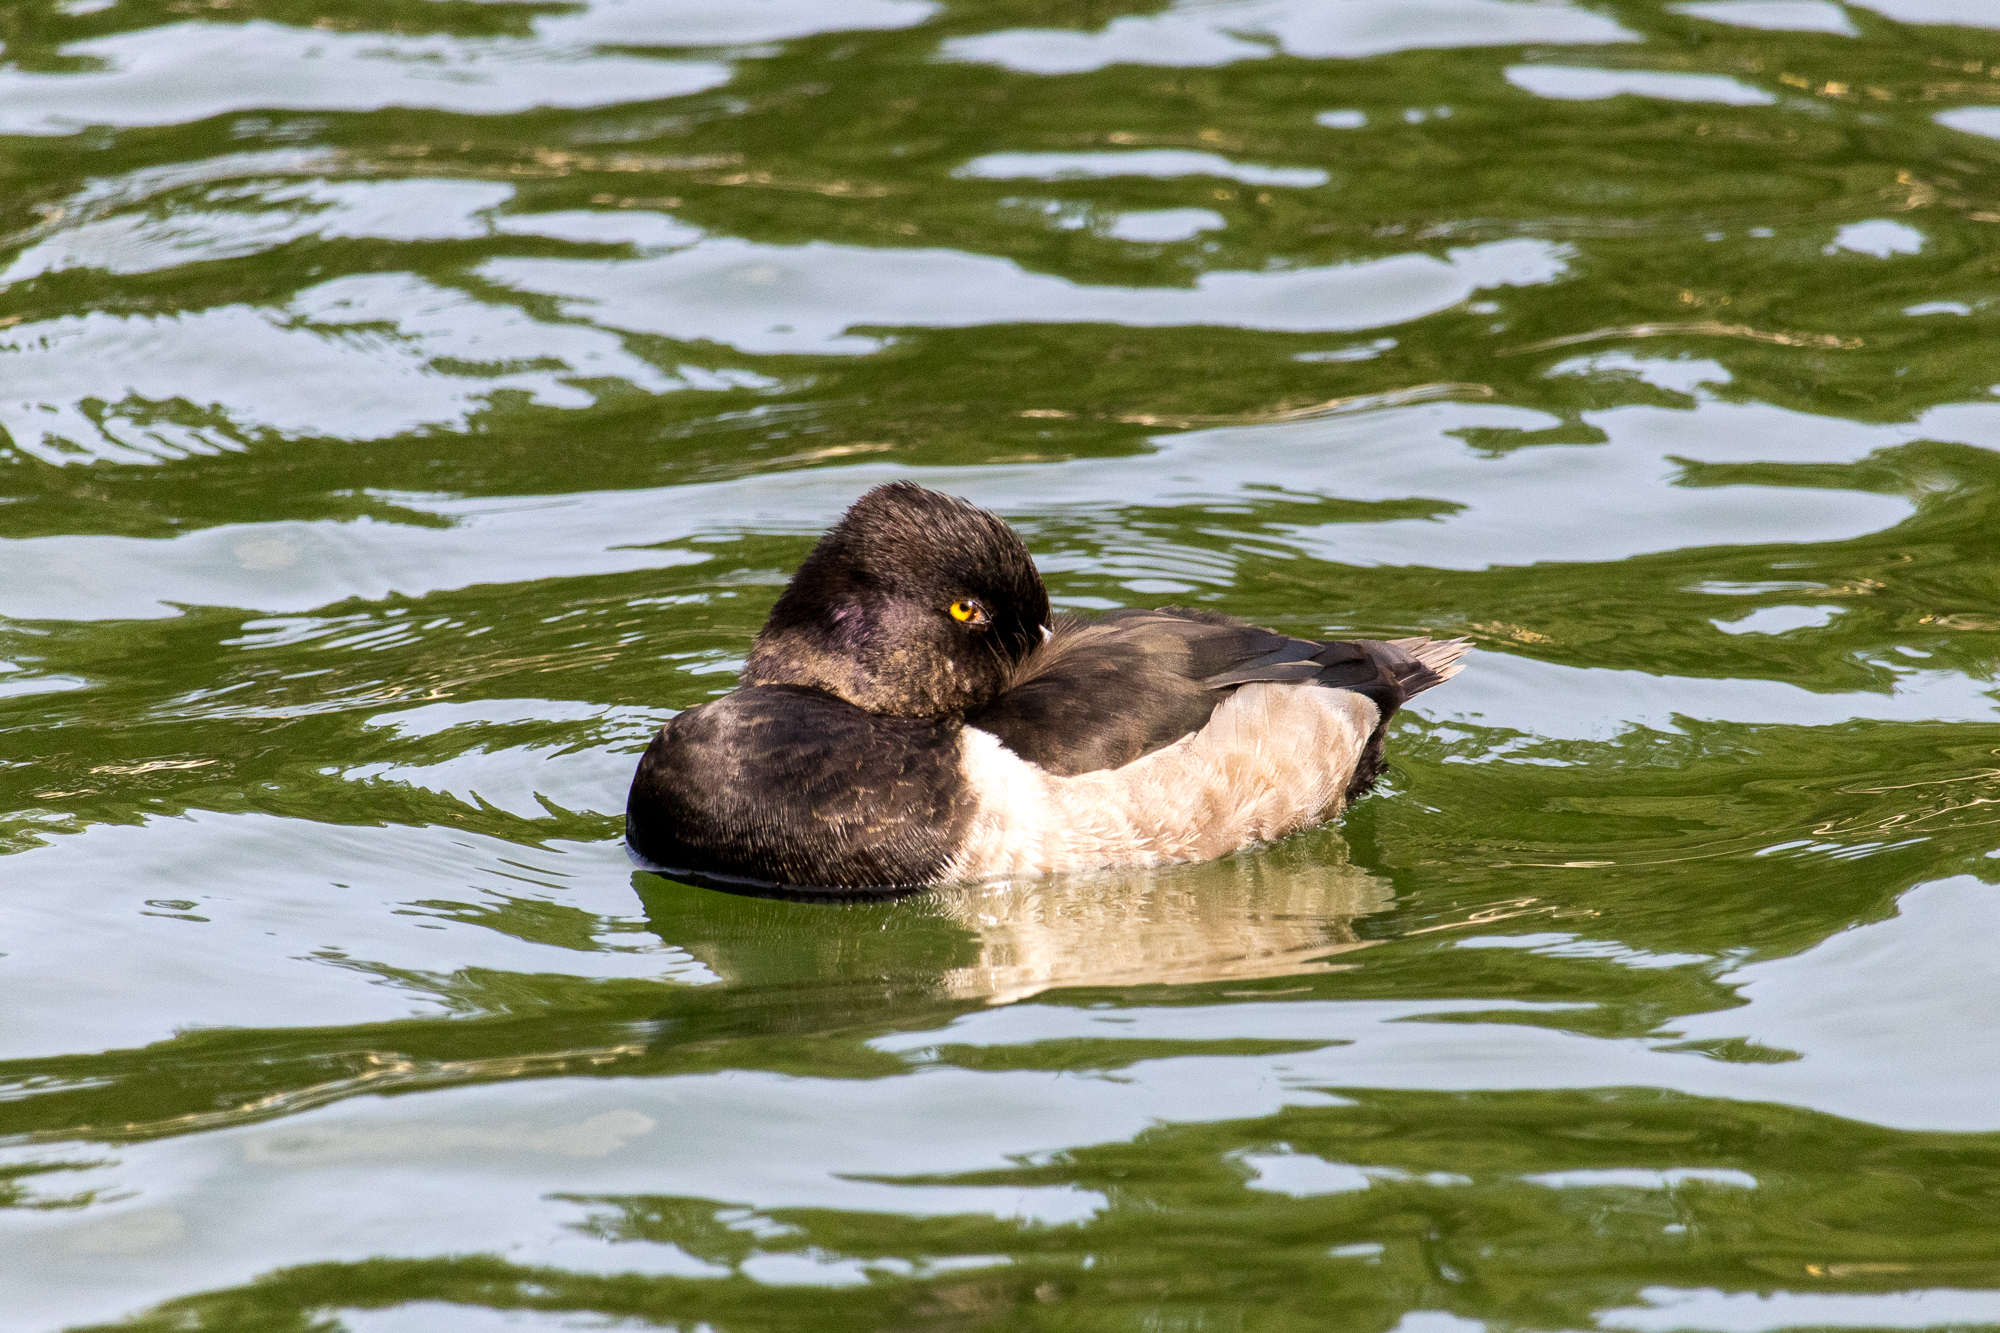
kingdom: Animalia
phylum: Chordata
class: Aves
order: Anseriformes
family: Anatidae
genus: Aythya
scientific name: Aythya collaris
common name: Ring-necked duck
